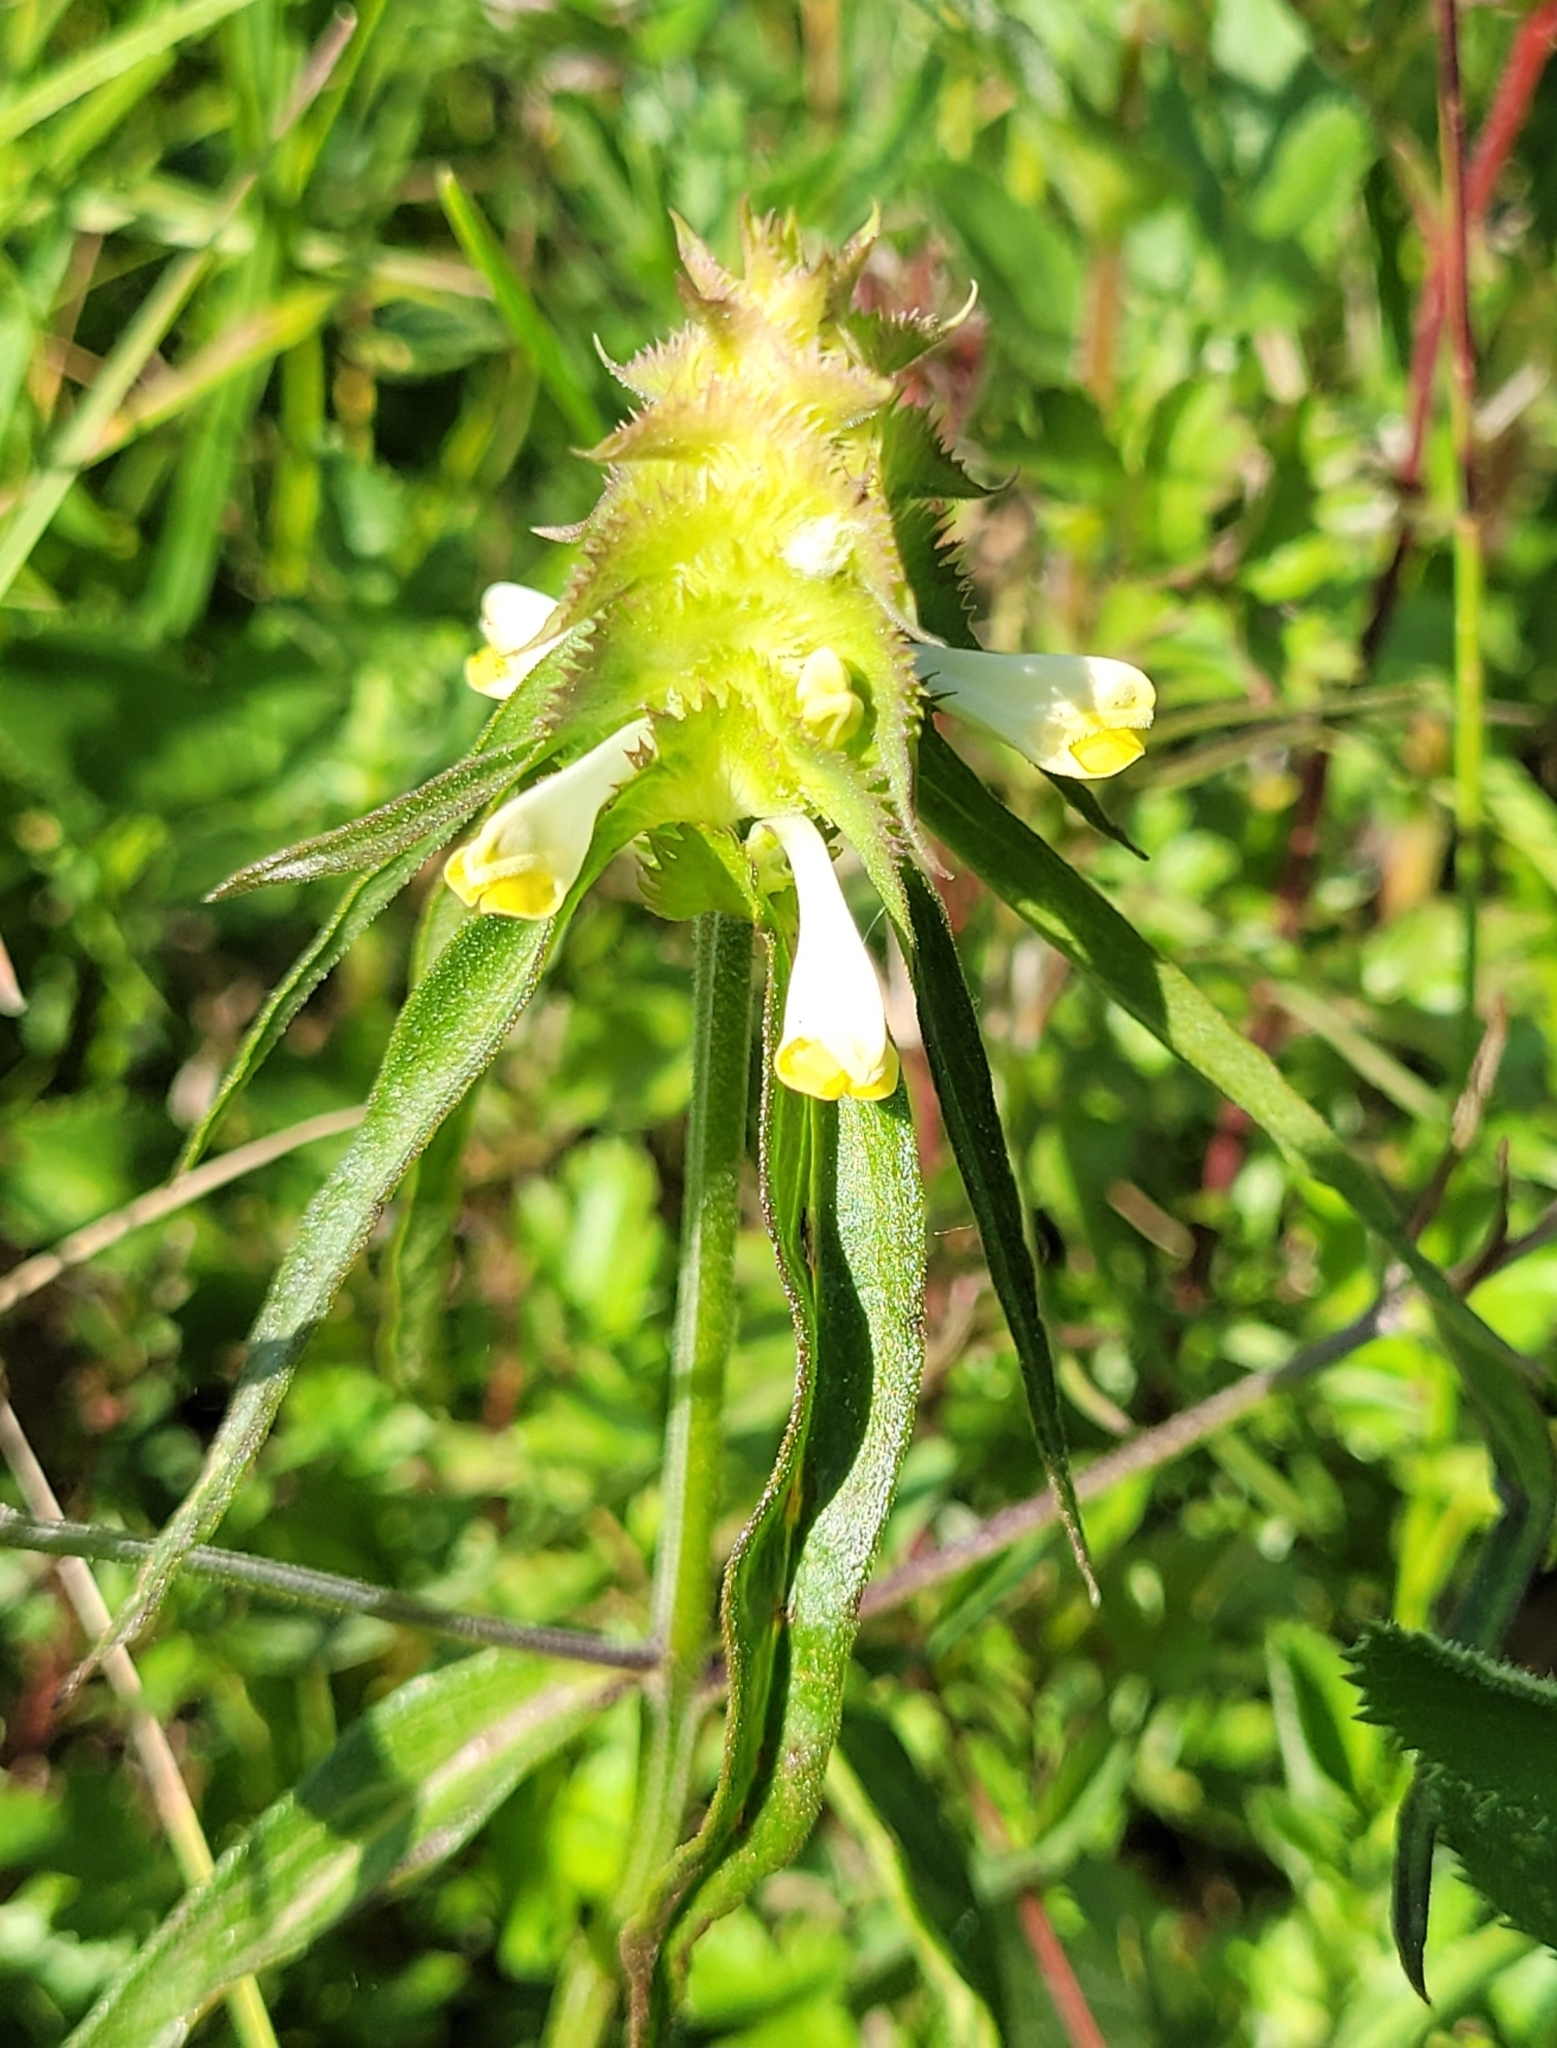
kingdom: Plantae
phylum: Tracheophyta
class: Magnoliopsida
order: Lamiales
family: Orobanchaceae
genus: Melampyrum
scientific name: Melampyrum cristatum
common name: Crested cow-wheat
